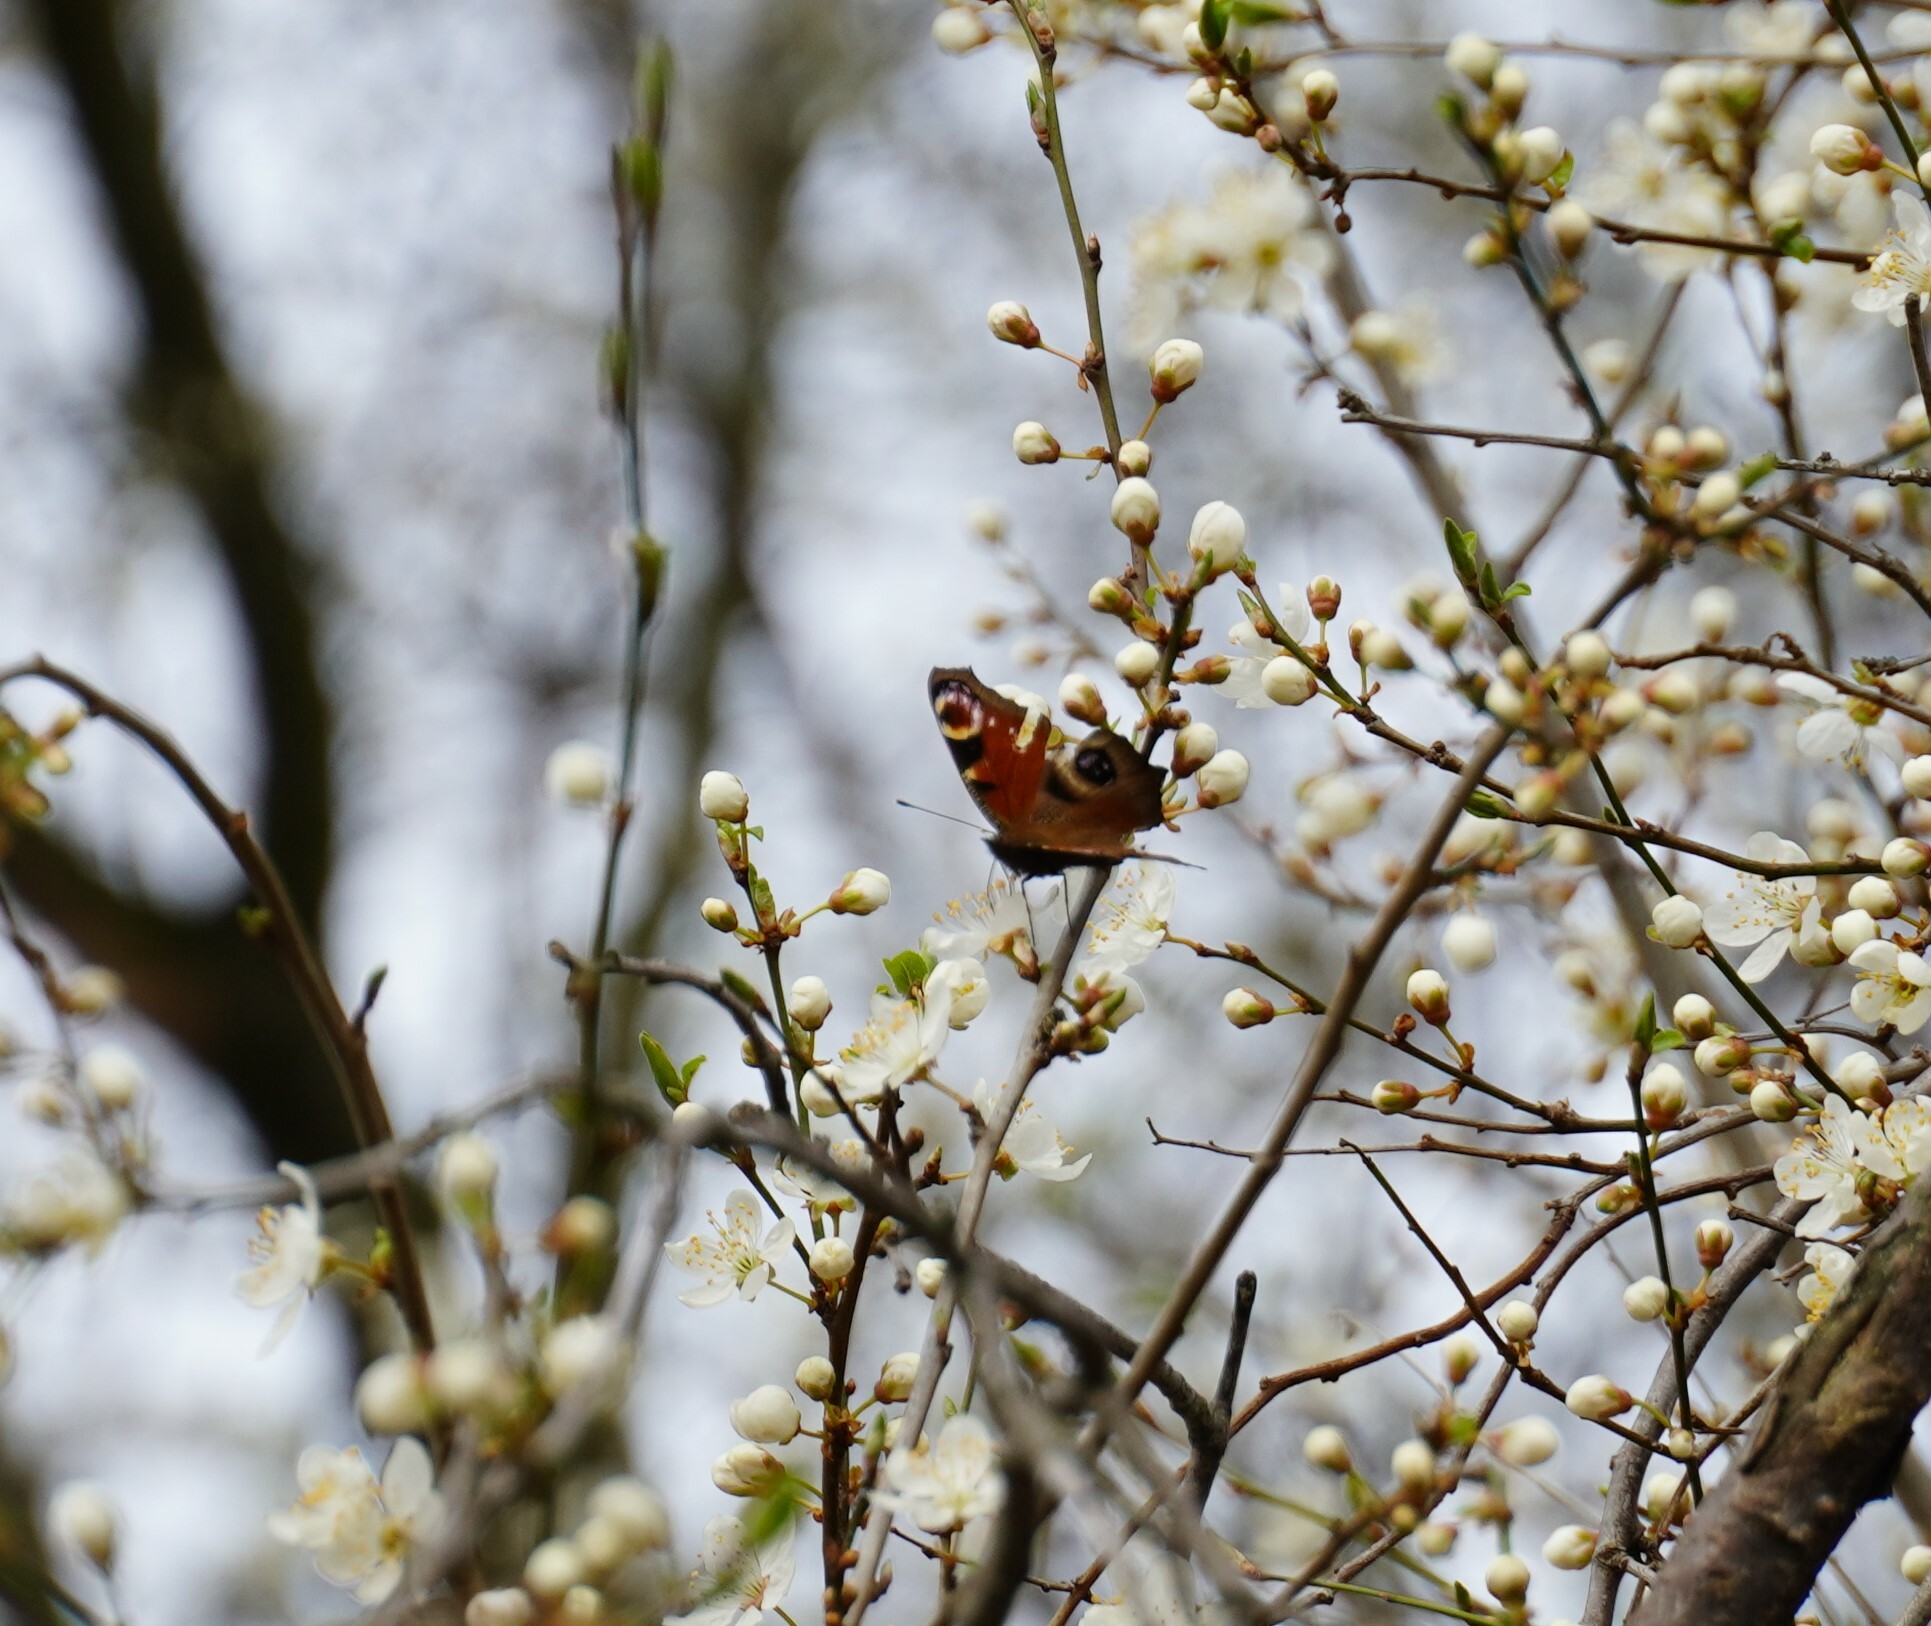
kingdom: Animalia
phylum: Arthropoda
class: Insecta
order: Lepidoptera
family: Nymphalidae
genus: Aglais
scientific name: Aglais io
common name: Peacock
